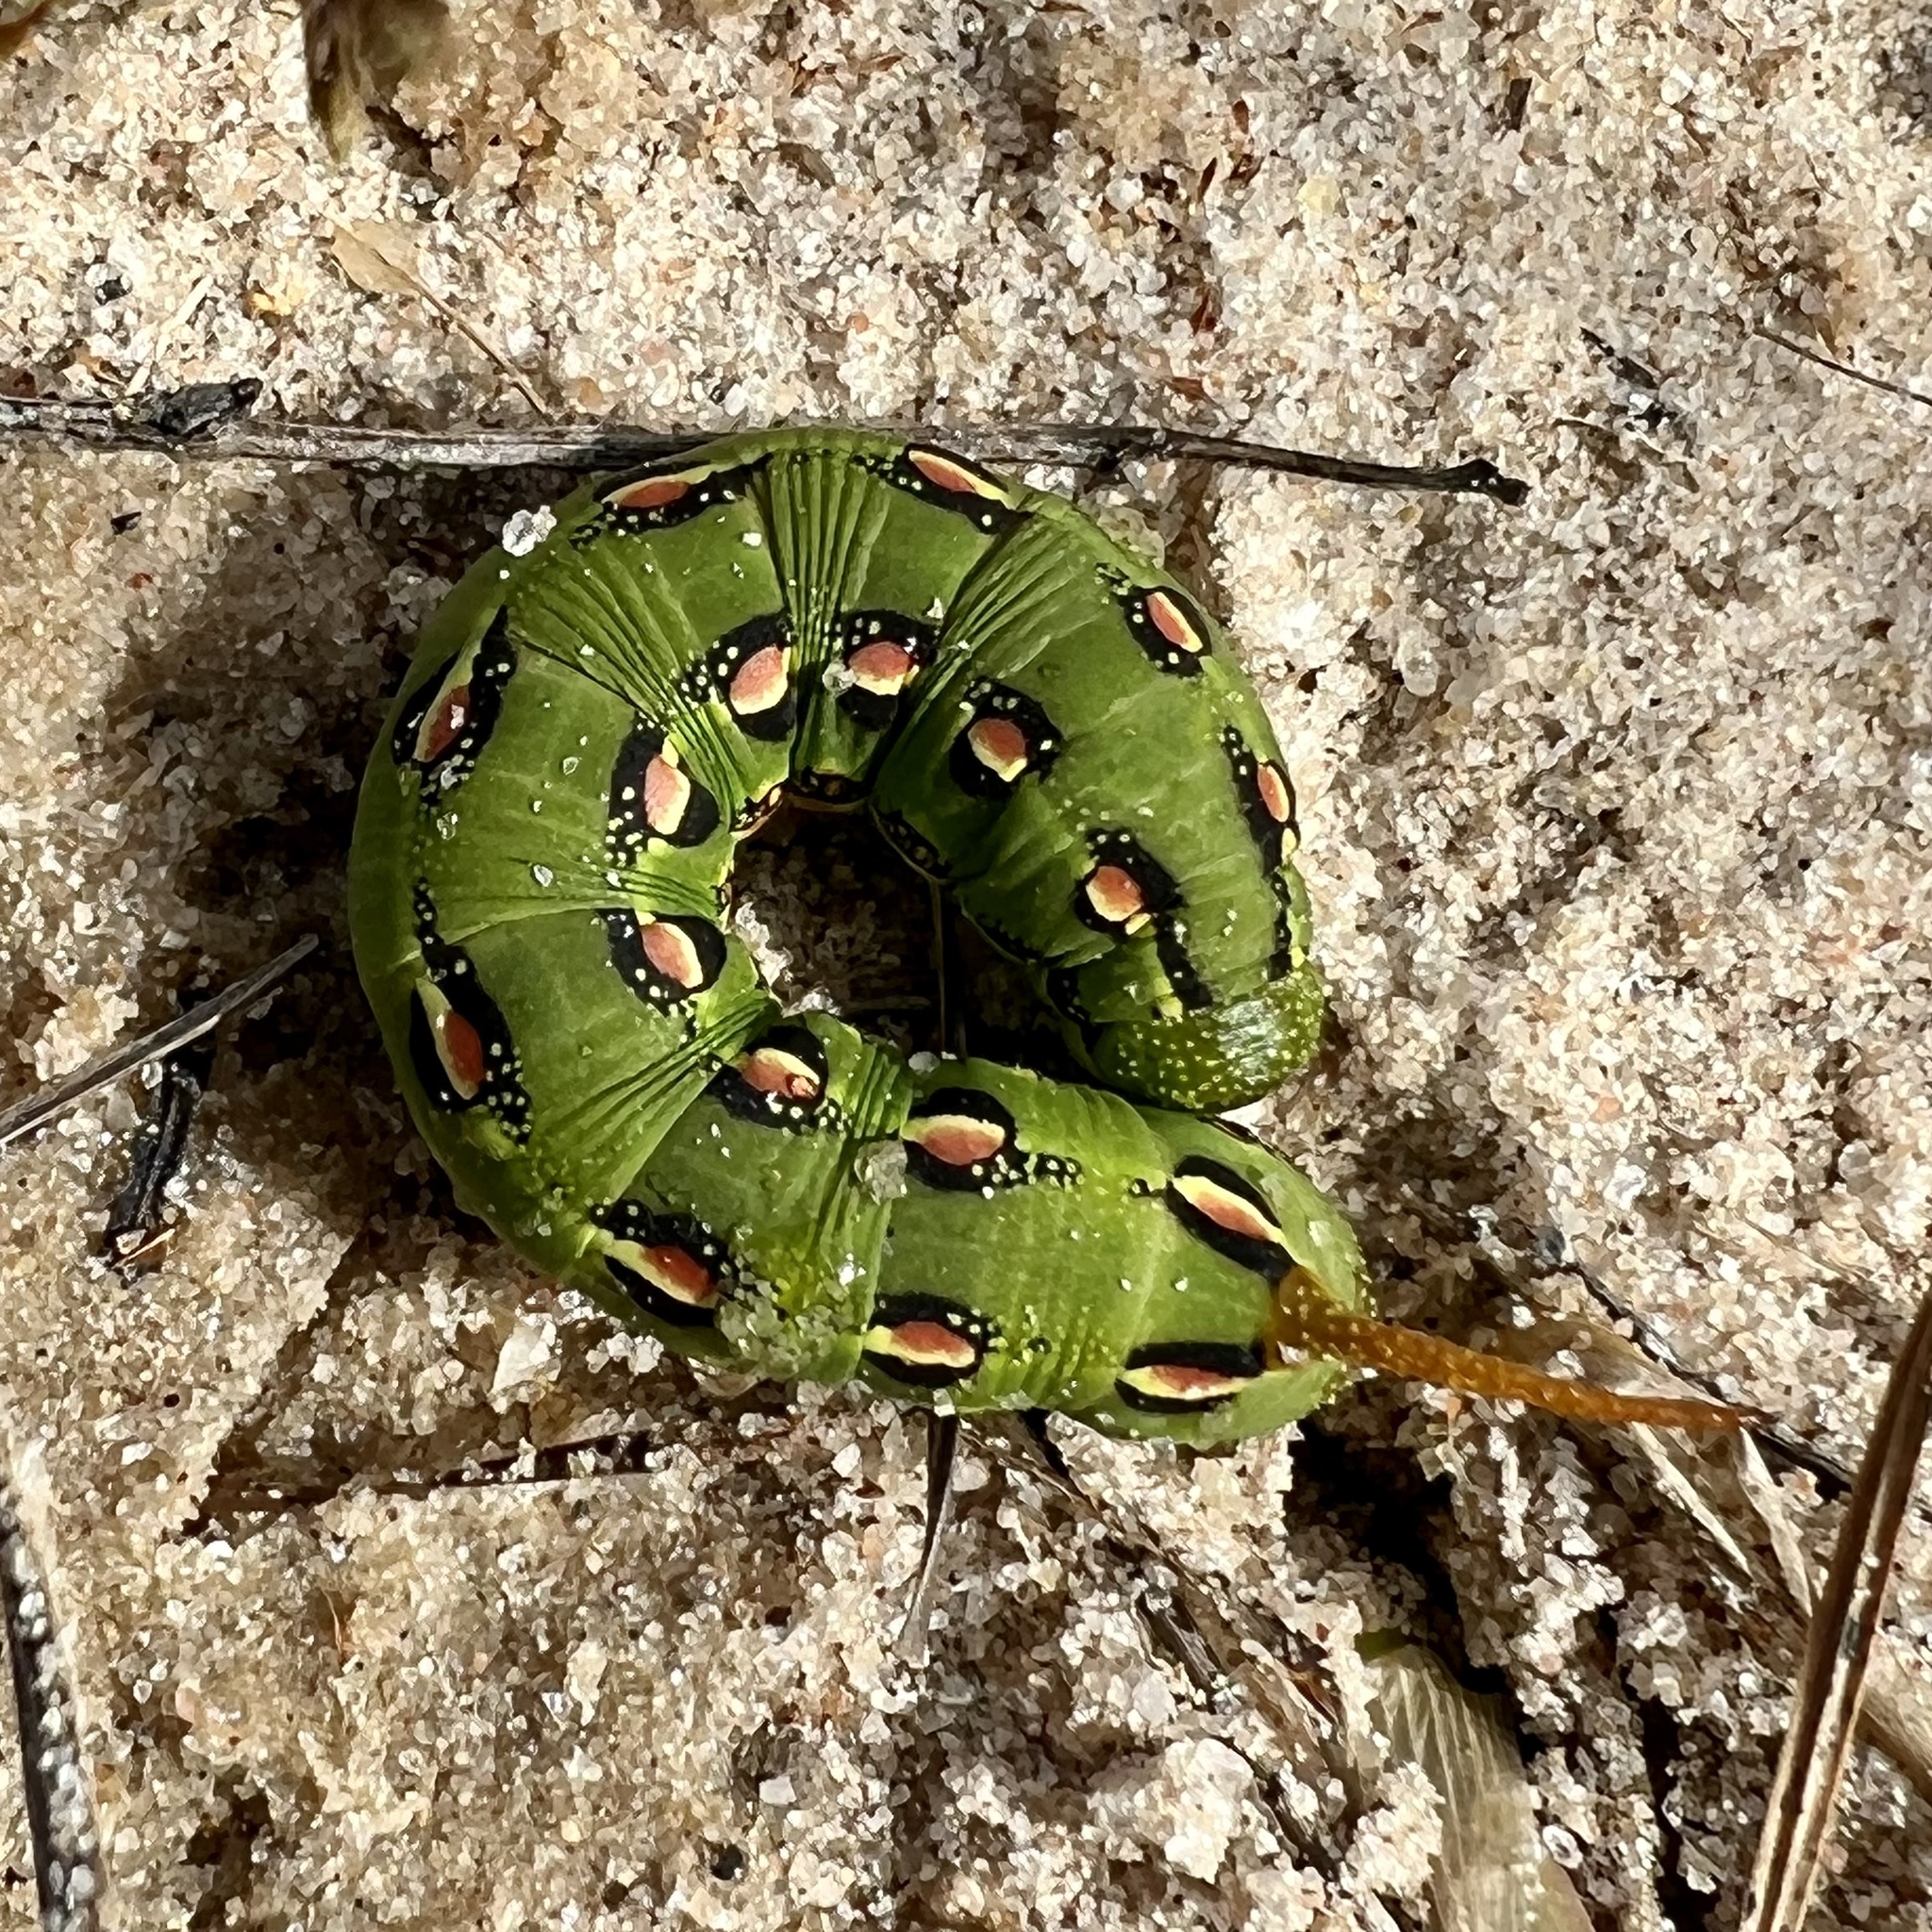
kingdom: Animalia
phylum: Arthropoda
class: Insecta
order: Lepidoptera
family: Sphingidae
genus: Hyles
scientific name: Hyles lineata
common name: White-lined sphinx
